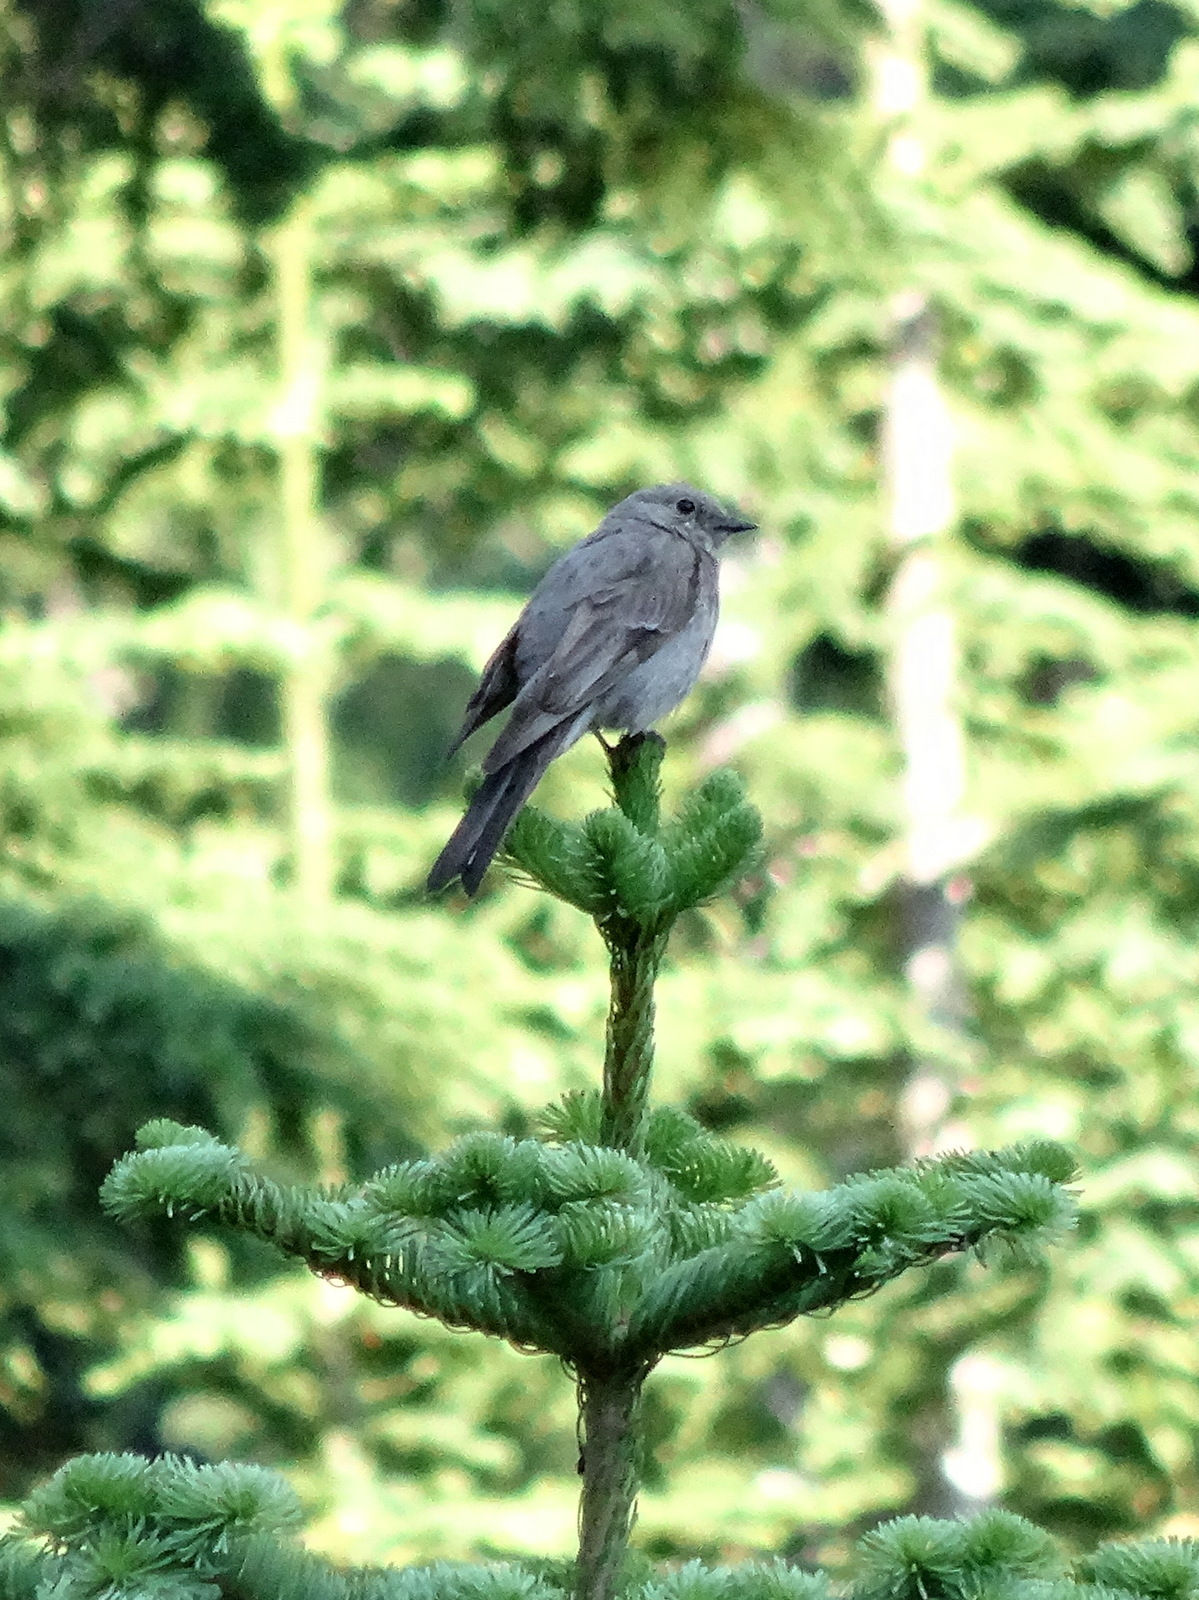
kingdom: Animalia
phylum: Chordata
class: Aves
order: Passeriformes
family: Turdidae
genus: Myadestes
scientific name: Myadestes townsendi
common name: Townsend's solitaire
